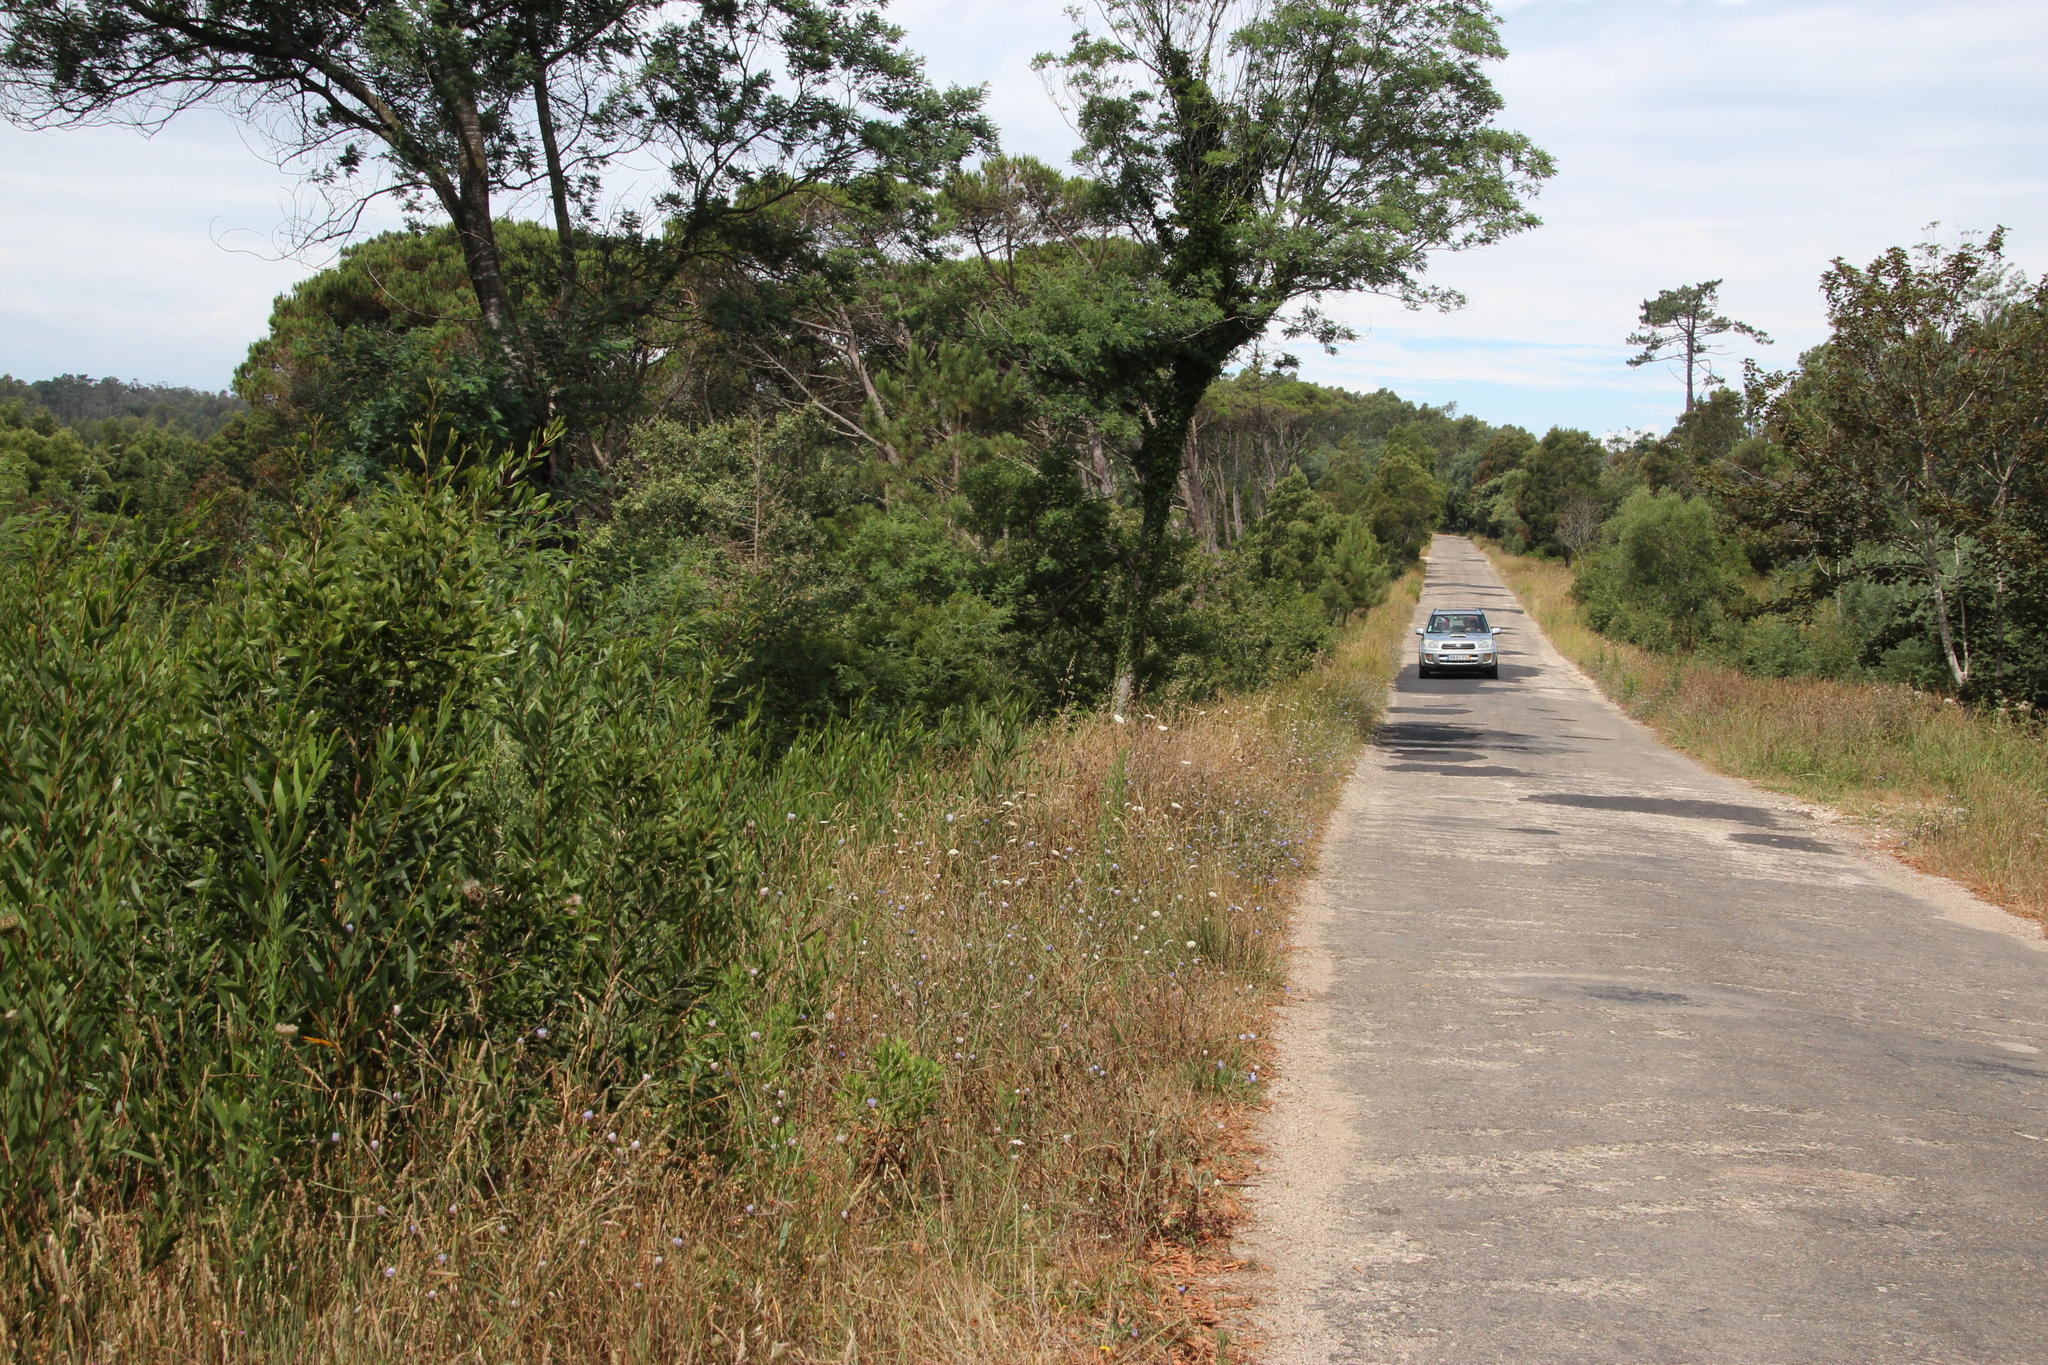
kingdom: Plantae
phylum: Tracheophyta
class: Magnoliopsida
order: Fabales
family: Fabaceae
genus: Acacia
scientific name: Acacia longifolia
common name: Sydney golden wattle
